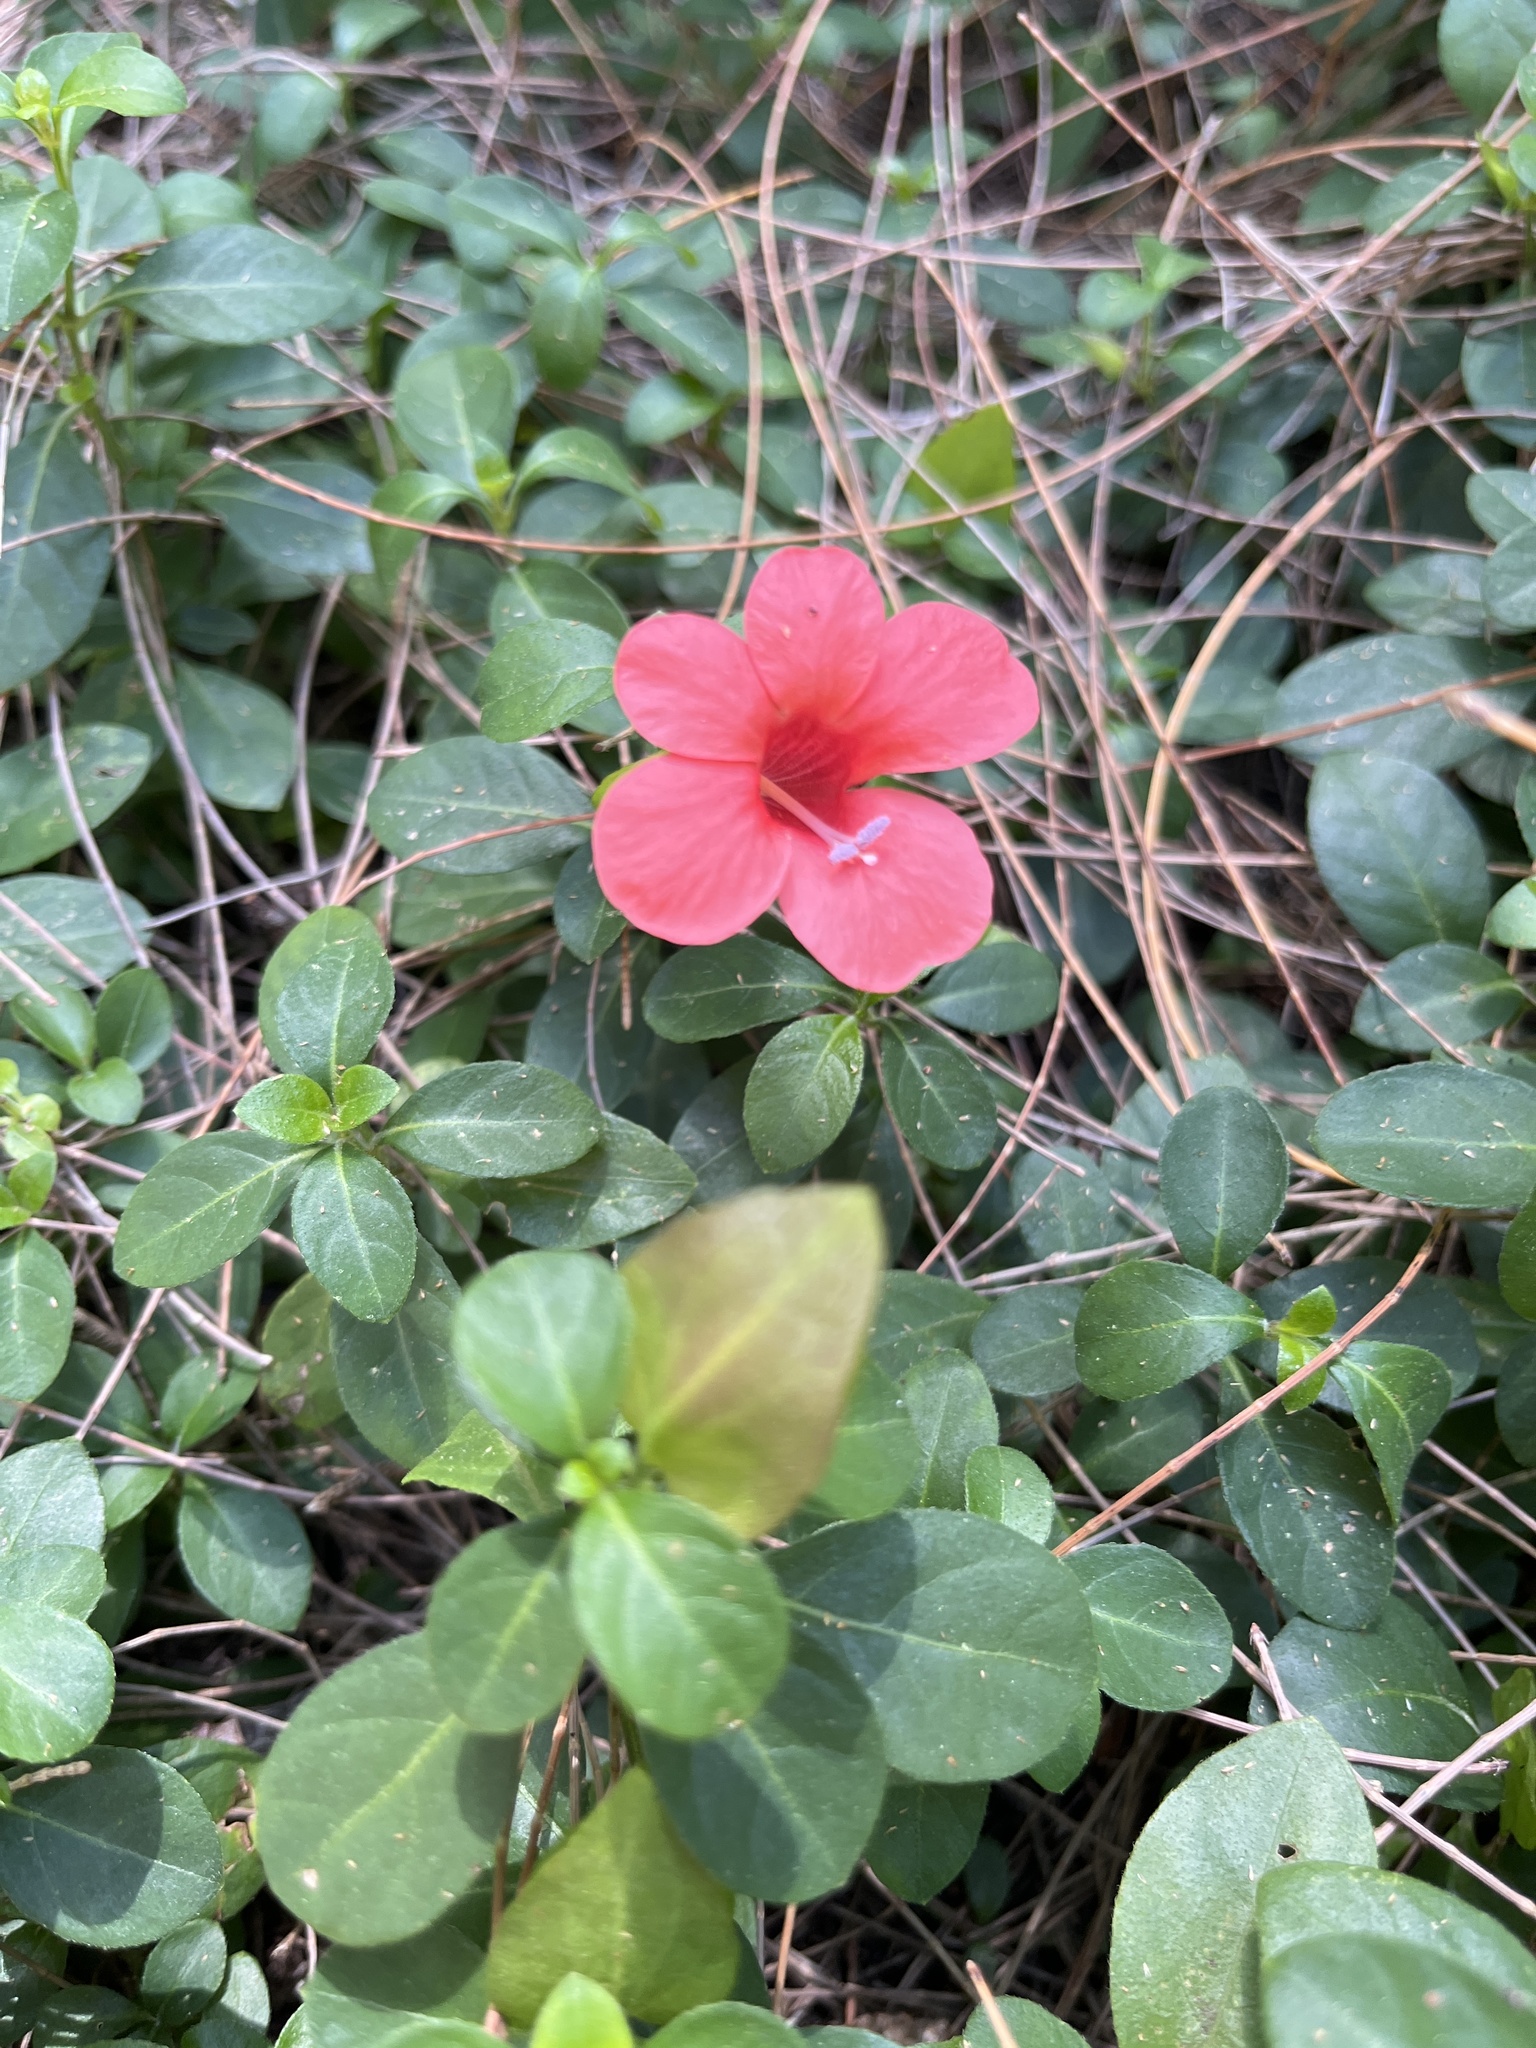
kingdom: Plantae
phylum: Tracheophyta
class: Magnoliopsida
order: Lamiales
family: Acanthaceae
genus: Barleria
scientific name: Barleria repens
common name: Pink-ruellia
